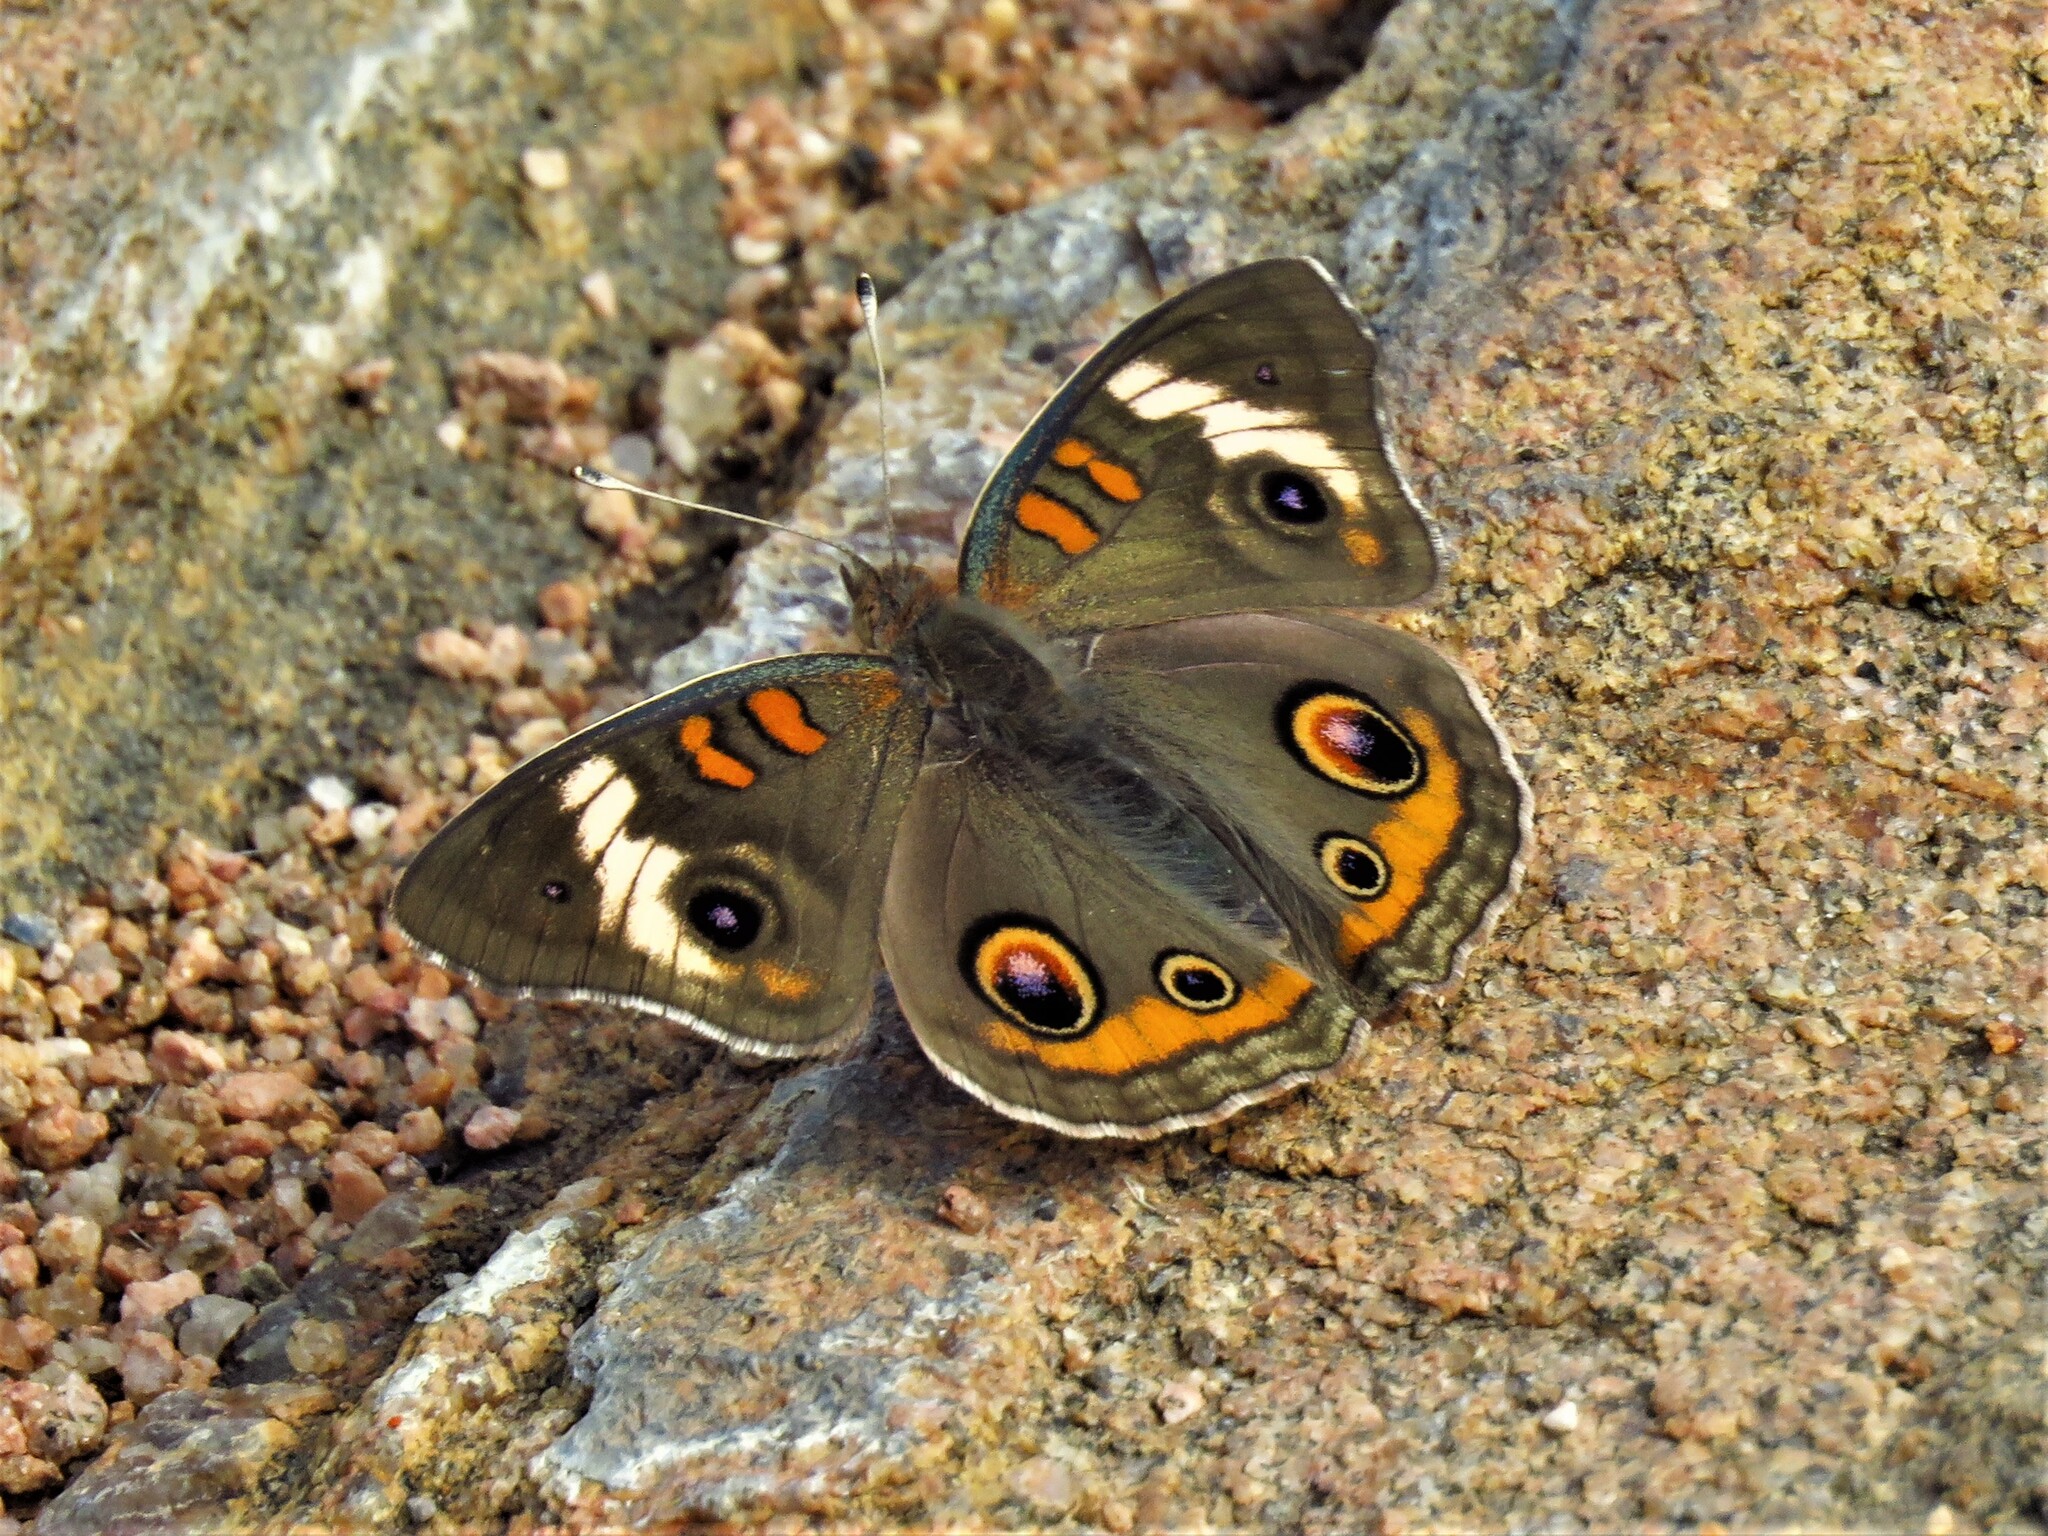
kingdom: Animalia
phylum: Arthropoda
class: Insecta
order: Lepidoptera
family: Nymphalidae
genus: Junonia
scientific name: Junonia coenia
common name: Common buckeye
